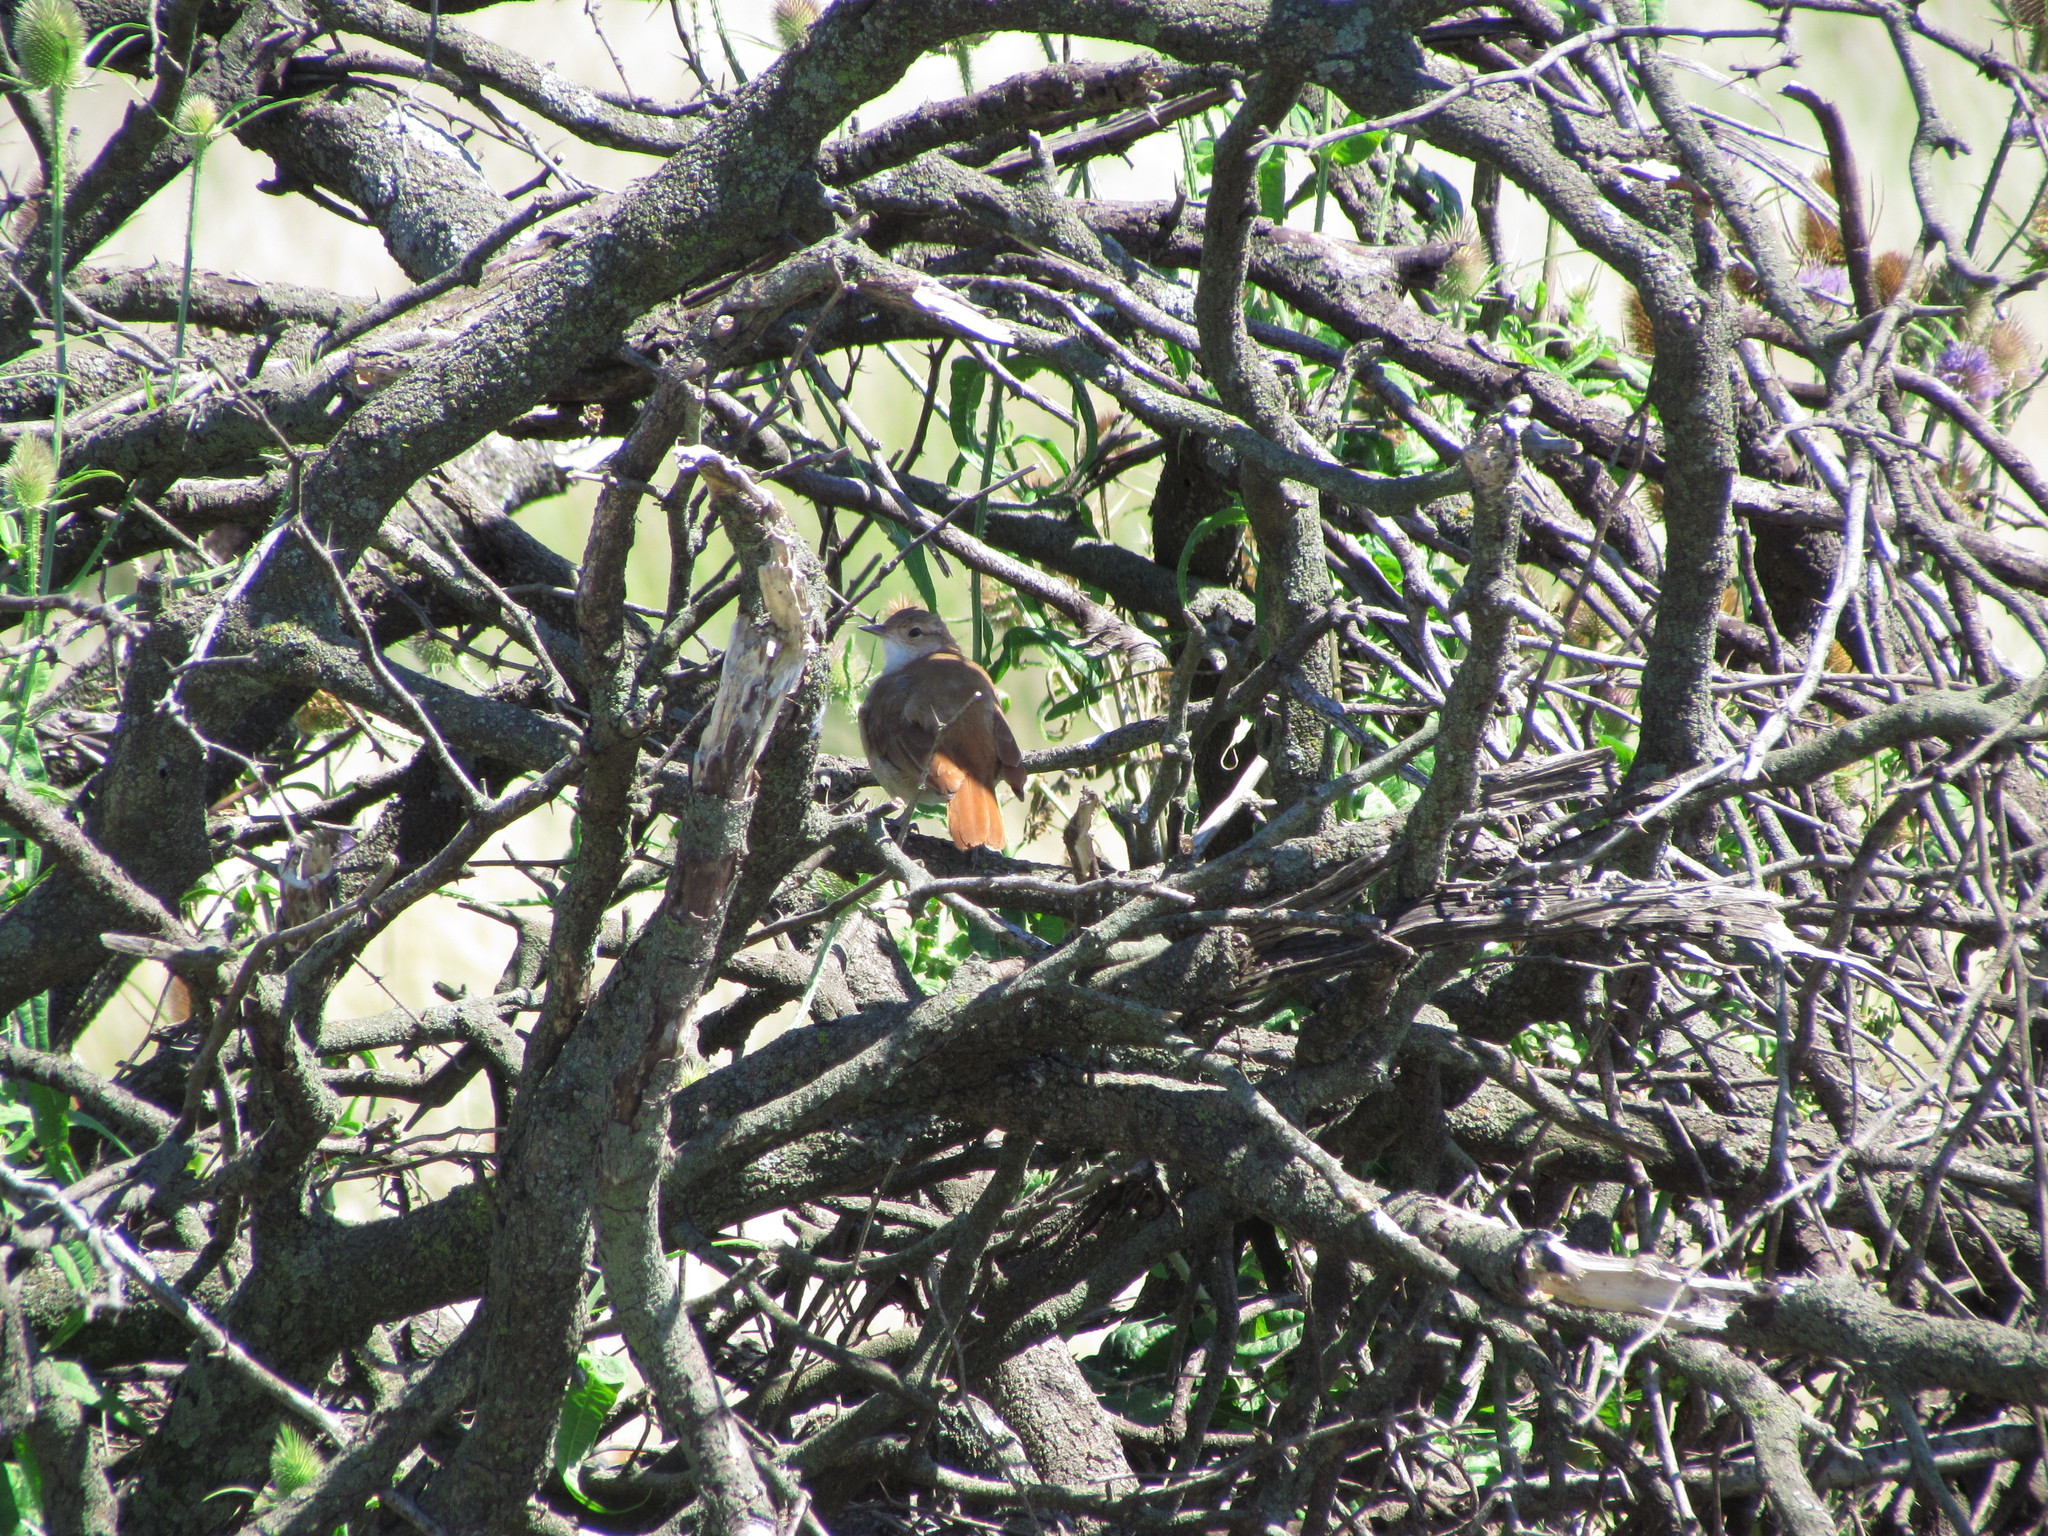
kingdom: Animalia
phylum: Chordata
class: Aves
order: Passeriformes
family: Furnariidae
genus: Furnarius
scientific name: Furnarius rufus
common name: Rufous hornero
